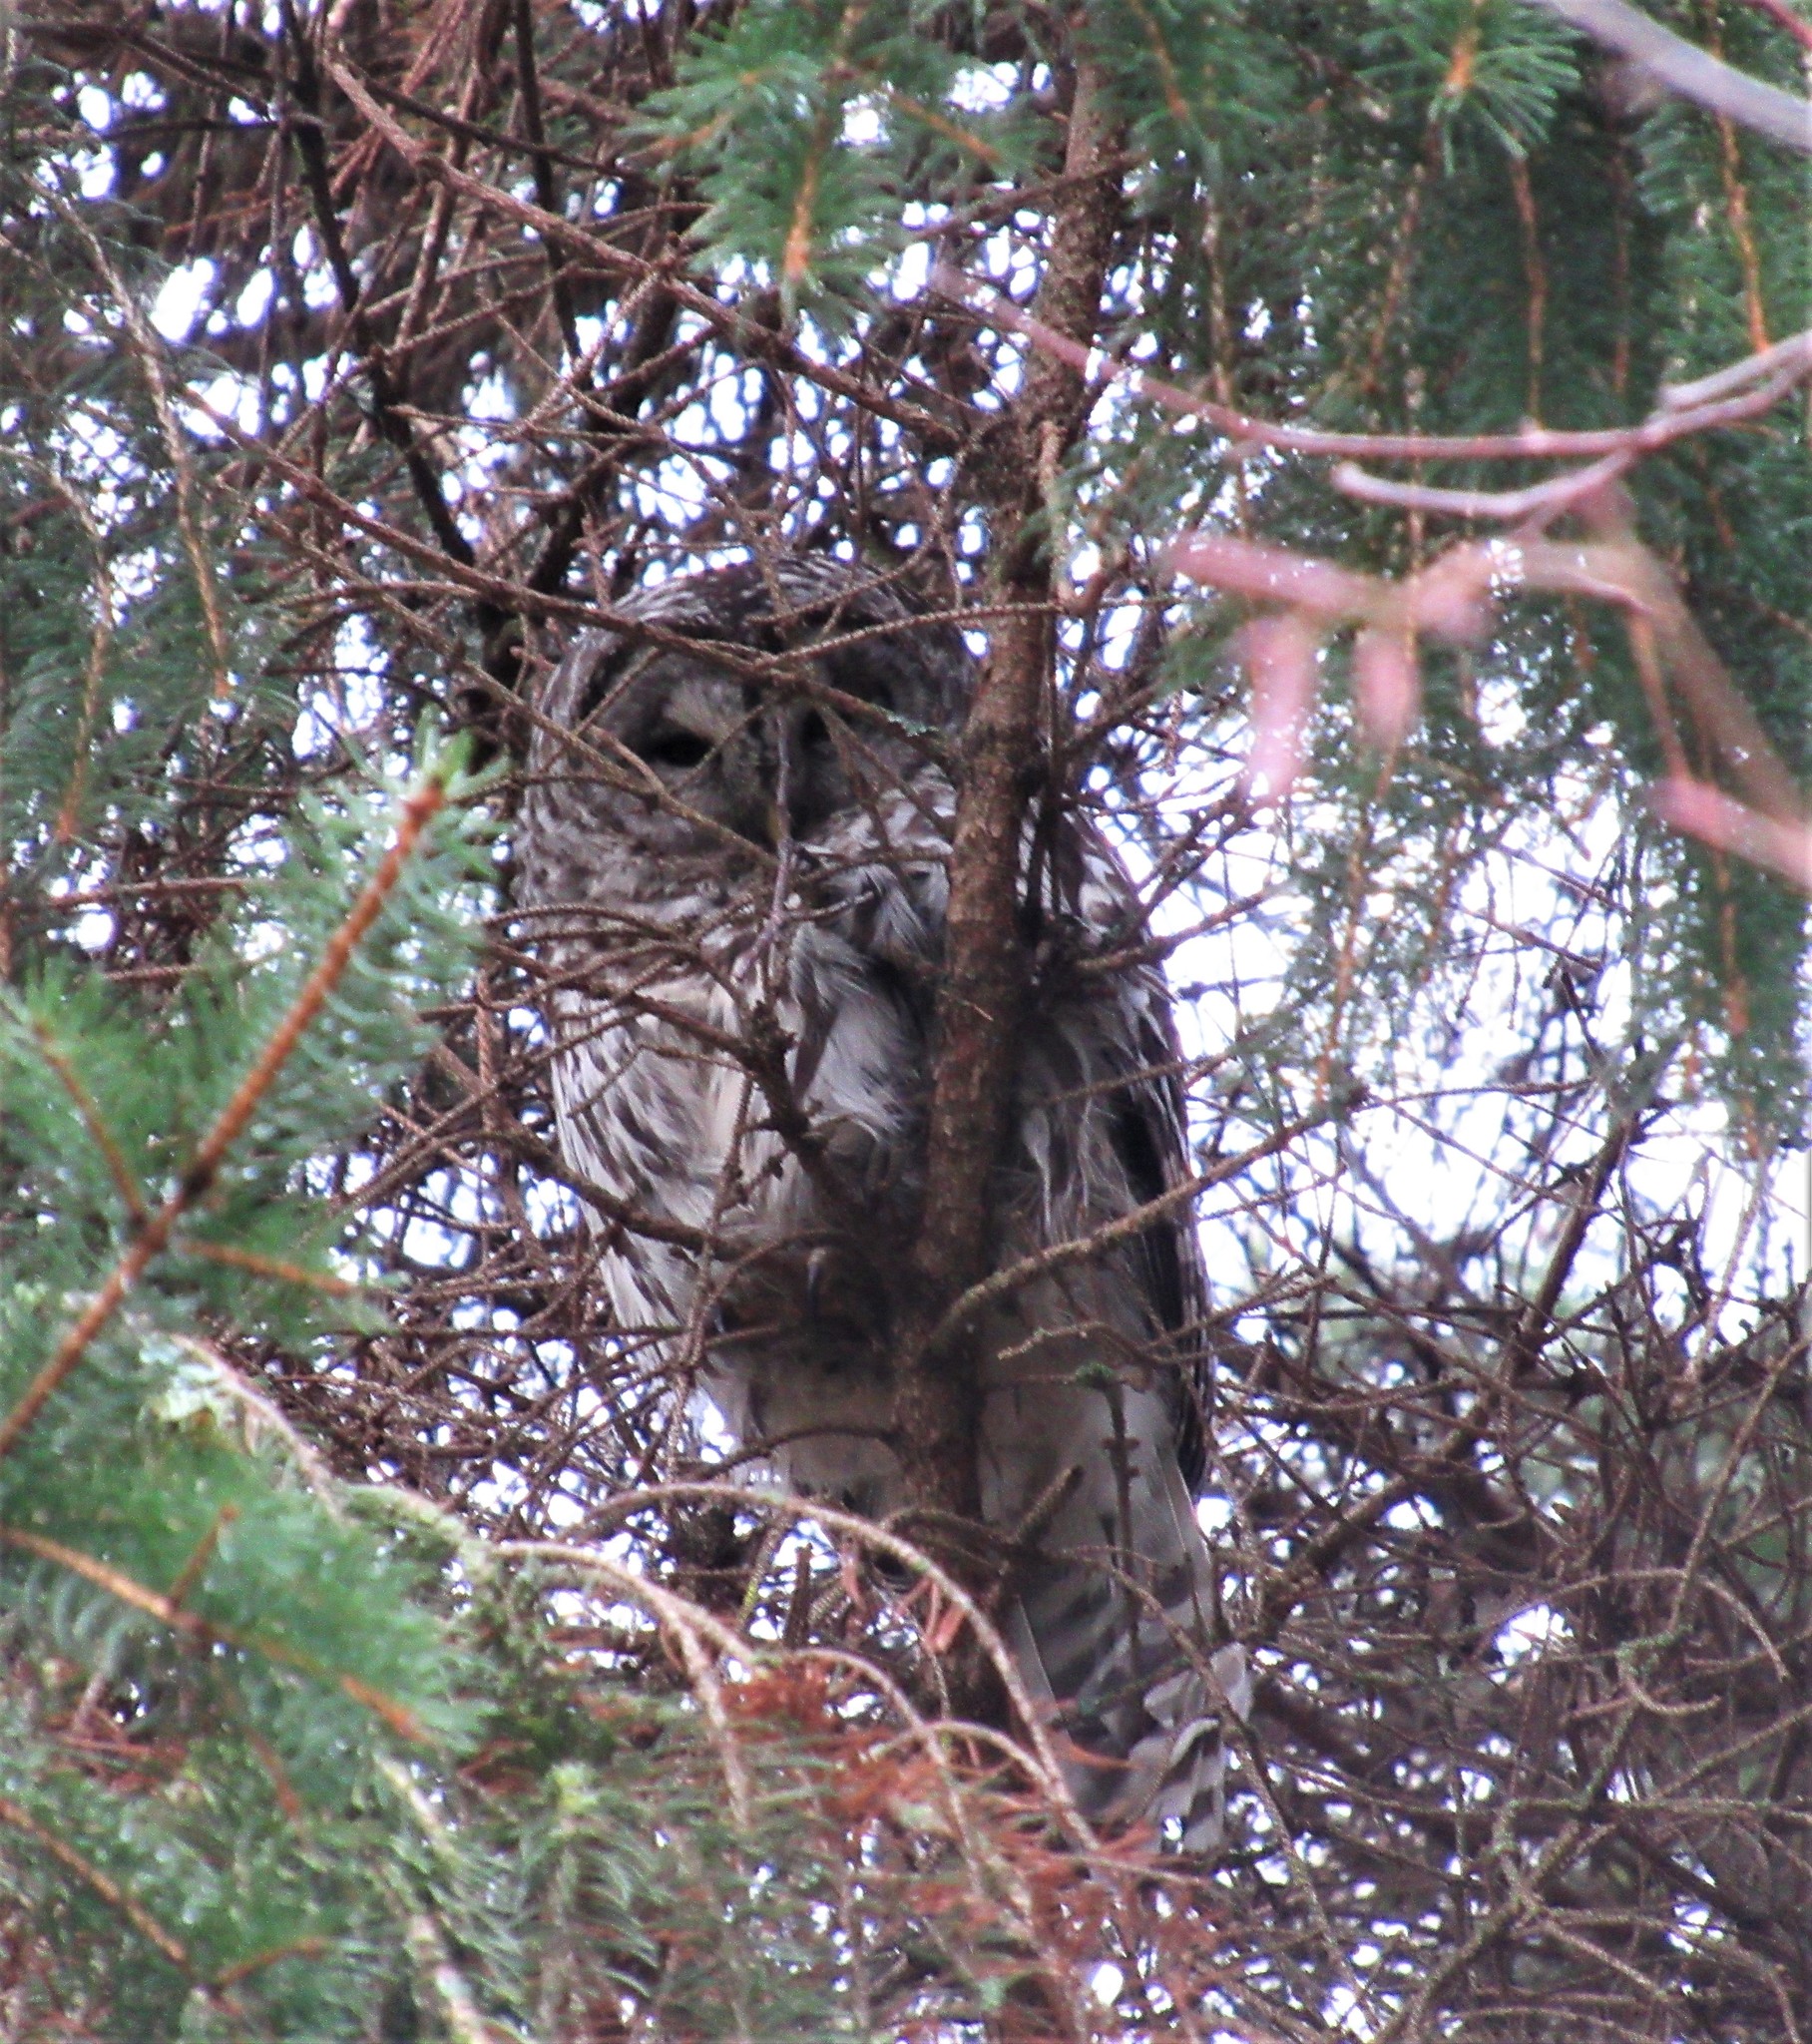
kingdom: Animalia
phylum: Chordata
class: Aves
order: Strigiformes
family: Strigidae
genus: Strix
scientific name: Strix varia
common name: Barred owl
